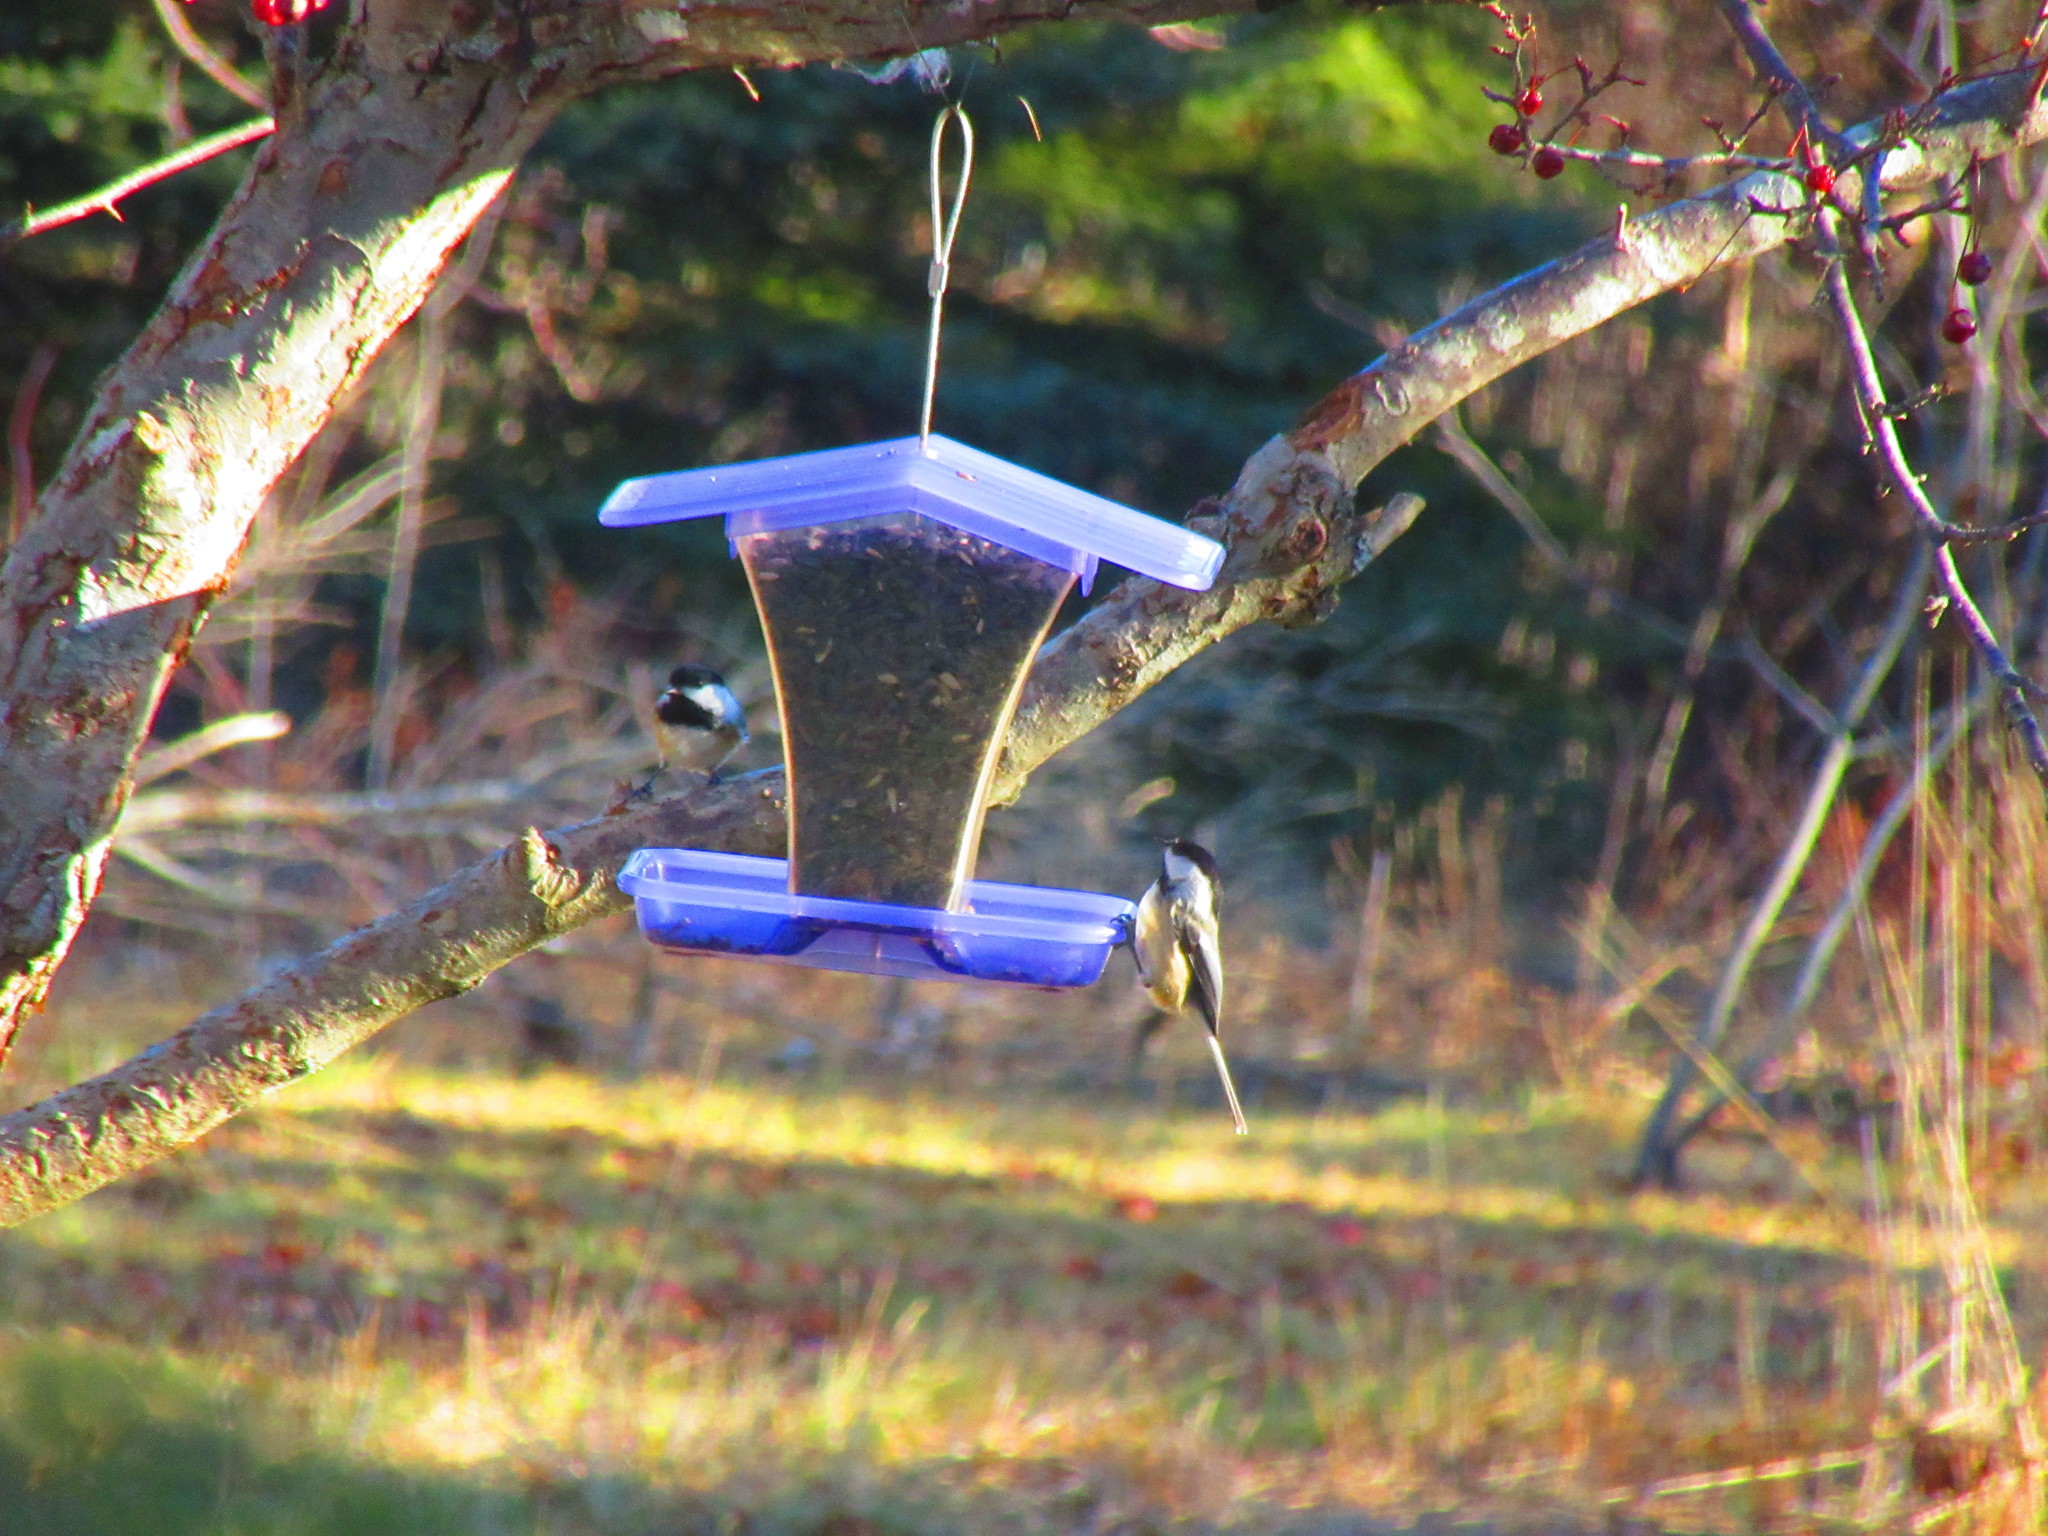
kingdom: Animalia
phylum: Chordata
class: Aves
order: Passeriformes
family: Paridae
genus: Poecile
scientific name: Poecile atricapillus
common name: Black-capped chickadee
